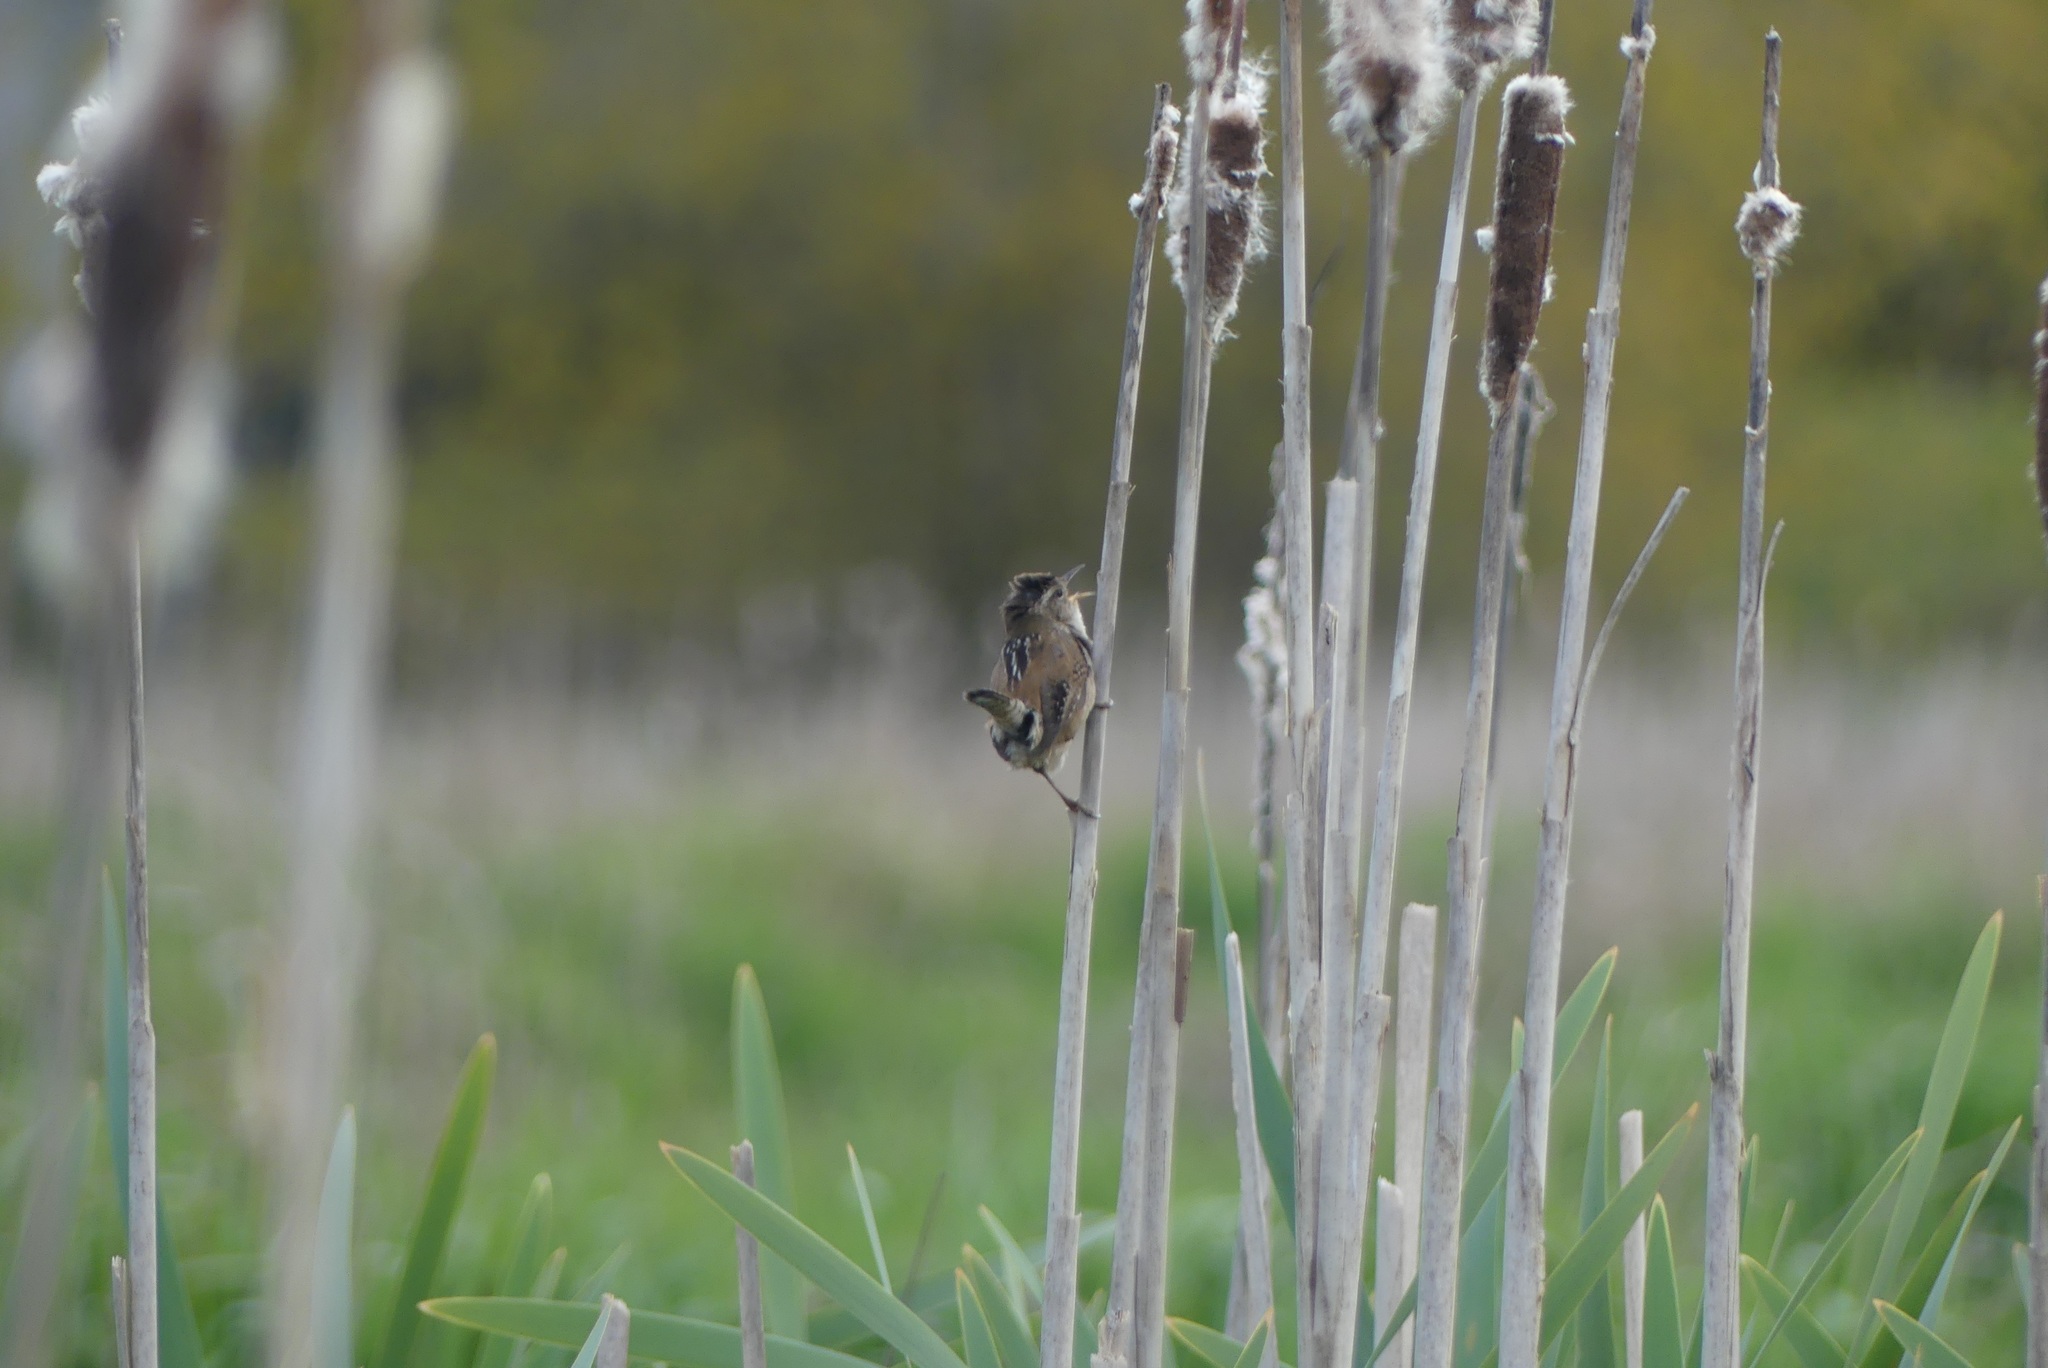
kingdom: Animalia
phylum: Chordata
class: Aves
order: Passeriformes
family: Troglodytidae
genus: Cistothorus
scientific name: Cistothorus palustris
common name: Marsh wren
